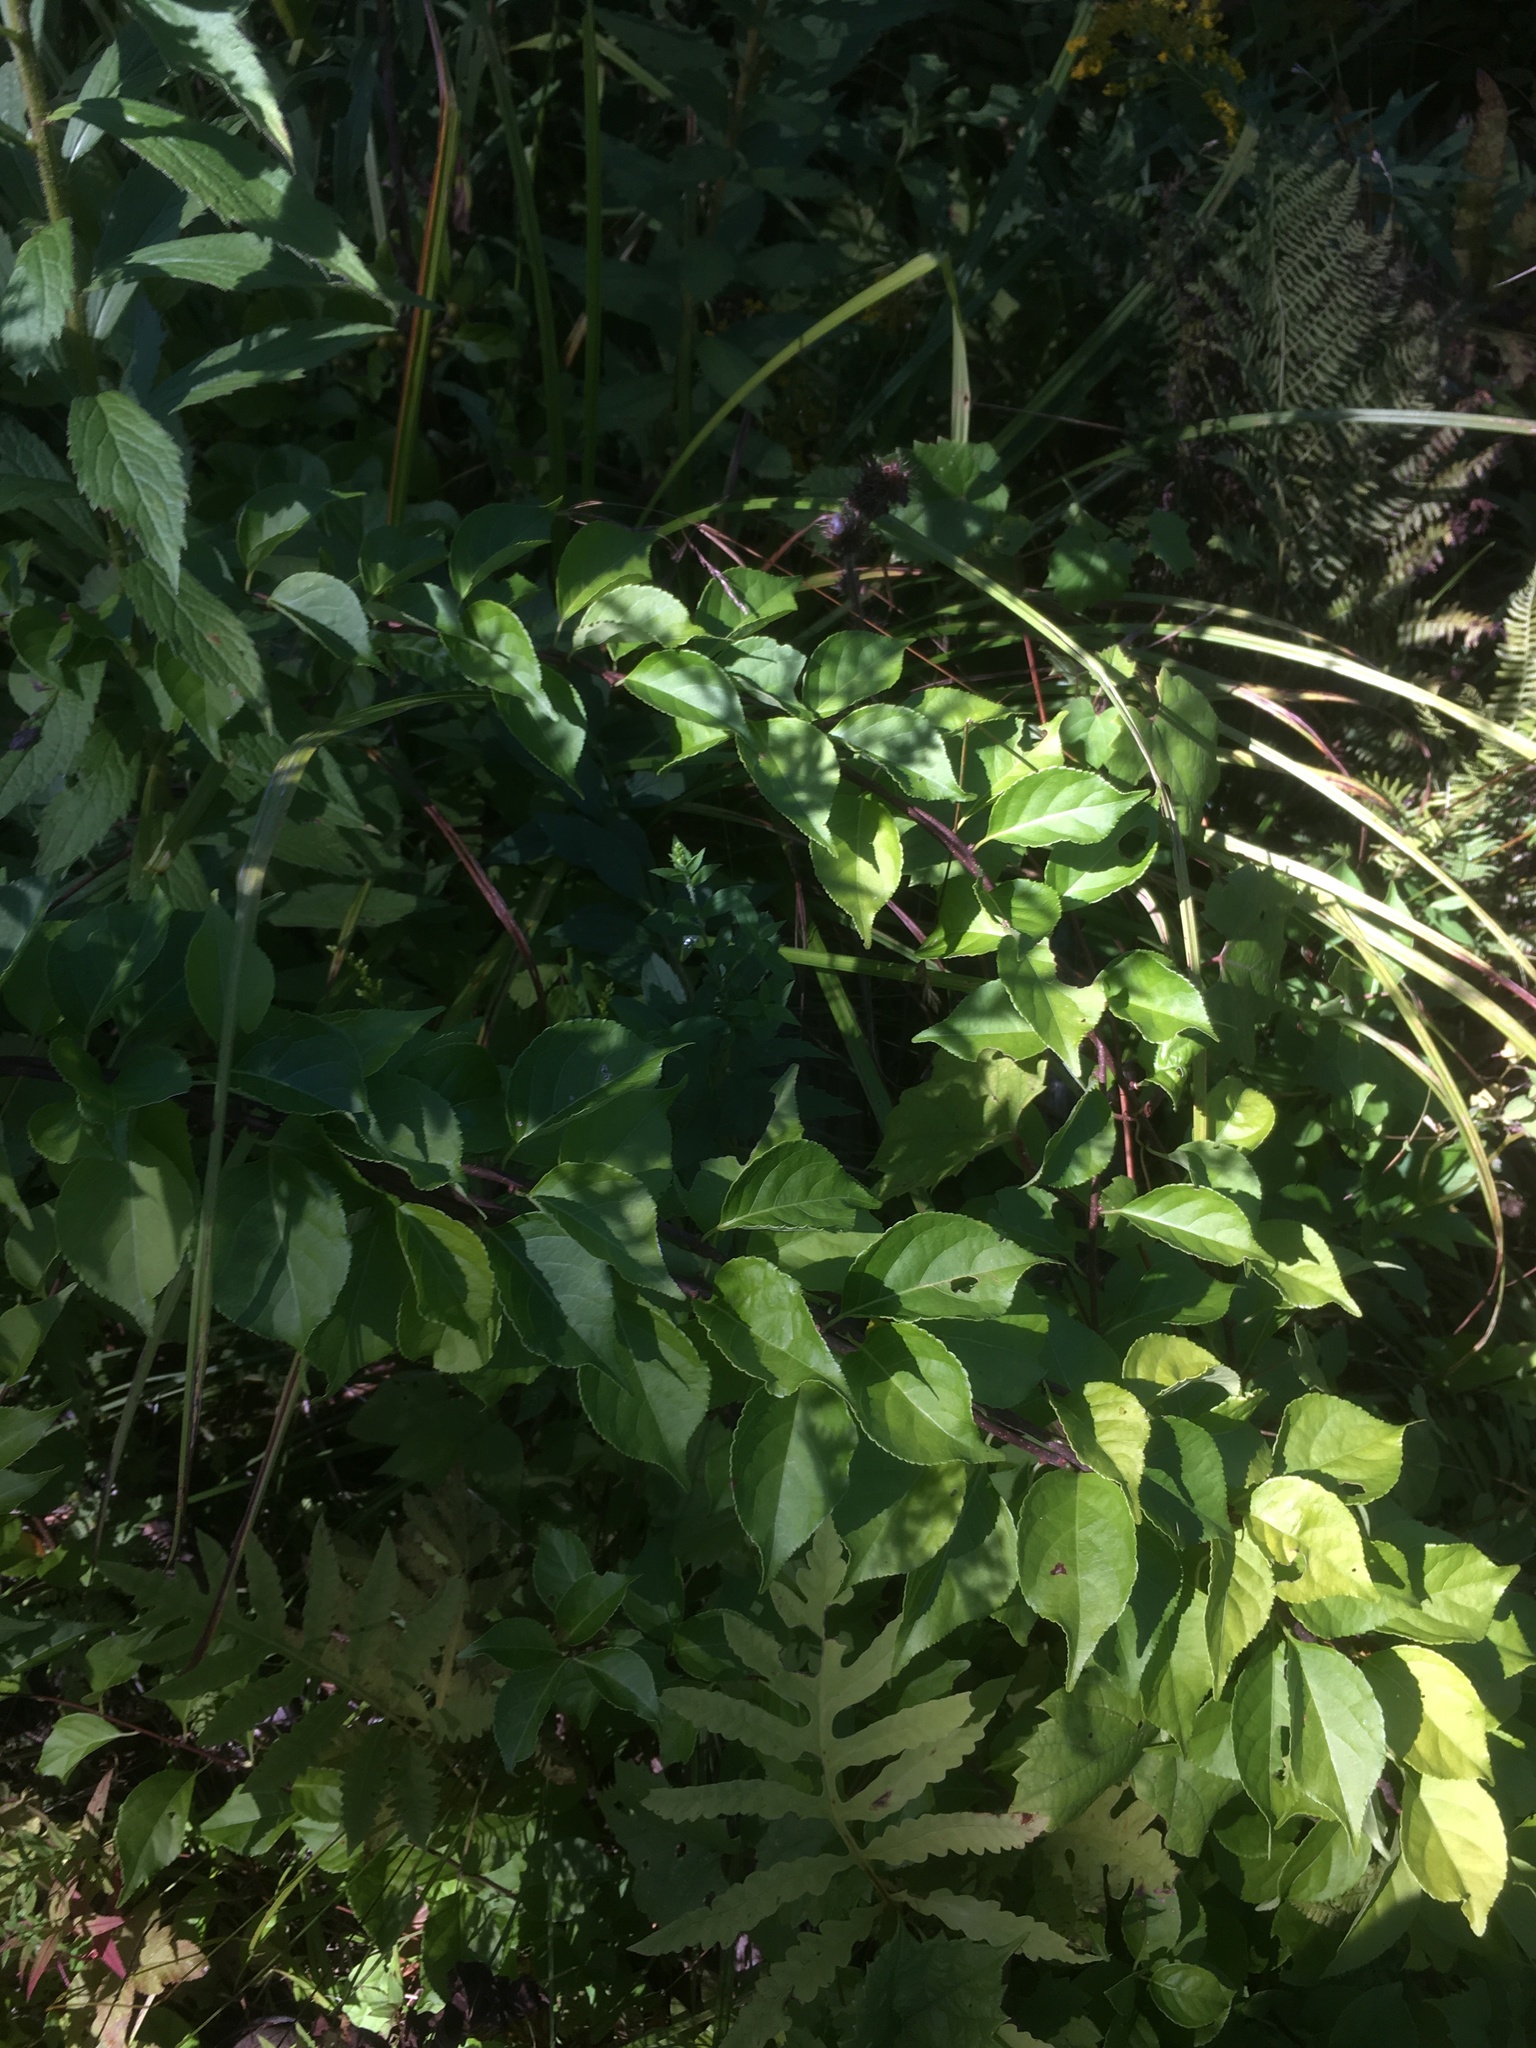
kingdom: Plantae
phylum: Tracheophyta
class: Magnoliopsida
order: Celastrales
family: Celastraceae
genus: Celastrus
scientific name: Celastrus orbiculatus
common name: Oriental bittersweet
